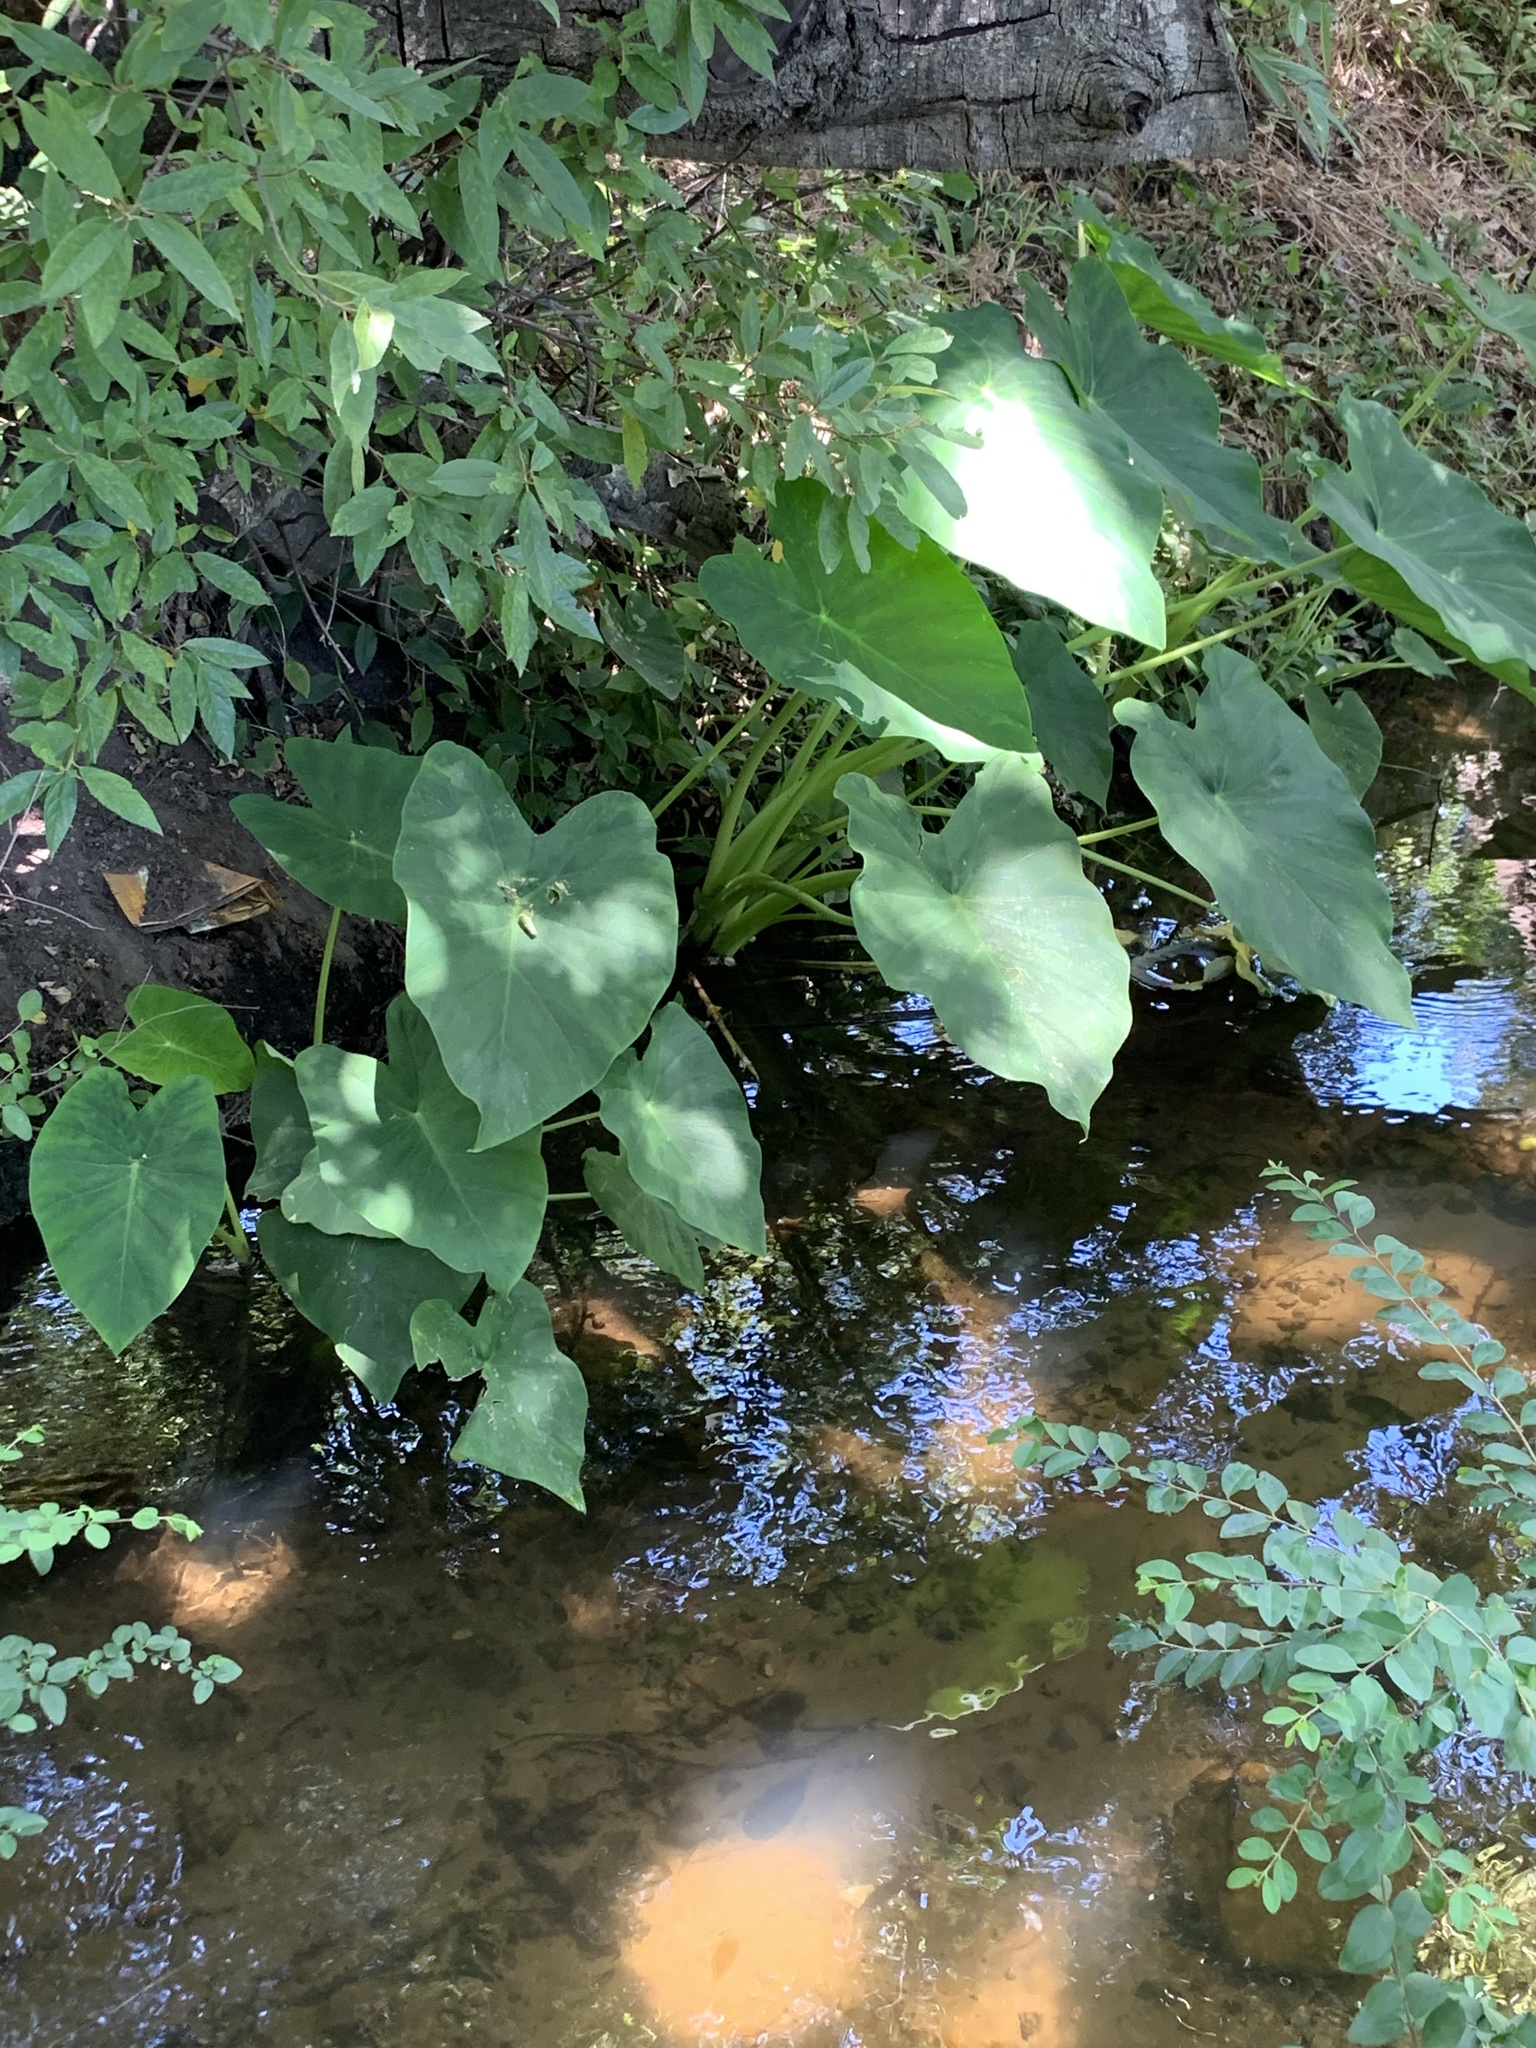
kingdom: Plantae
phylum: Tracheophyta
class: Liliopsida
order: Alismatales
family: Araceae
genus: Colocasia
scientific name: Colocasia esculenta
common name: Taro
